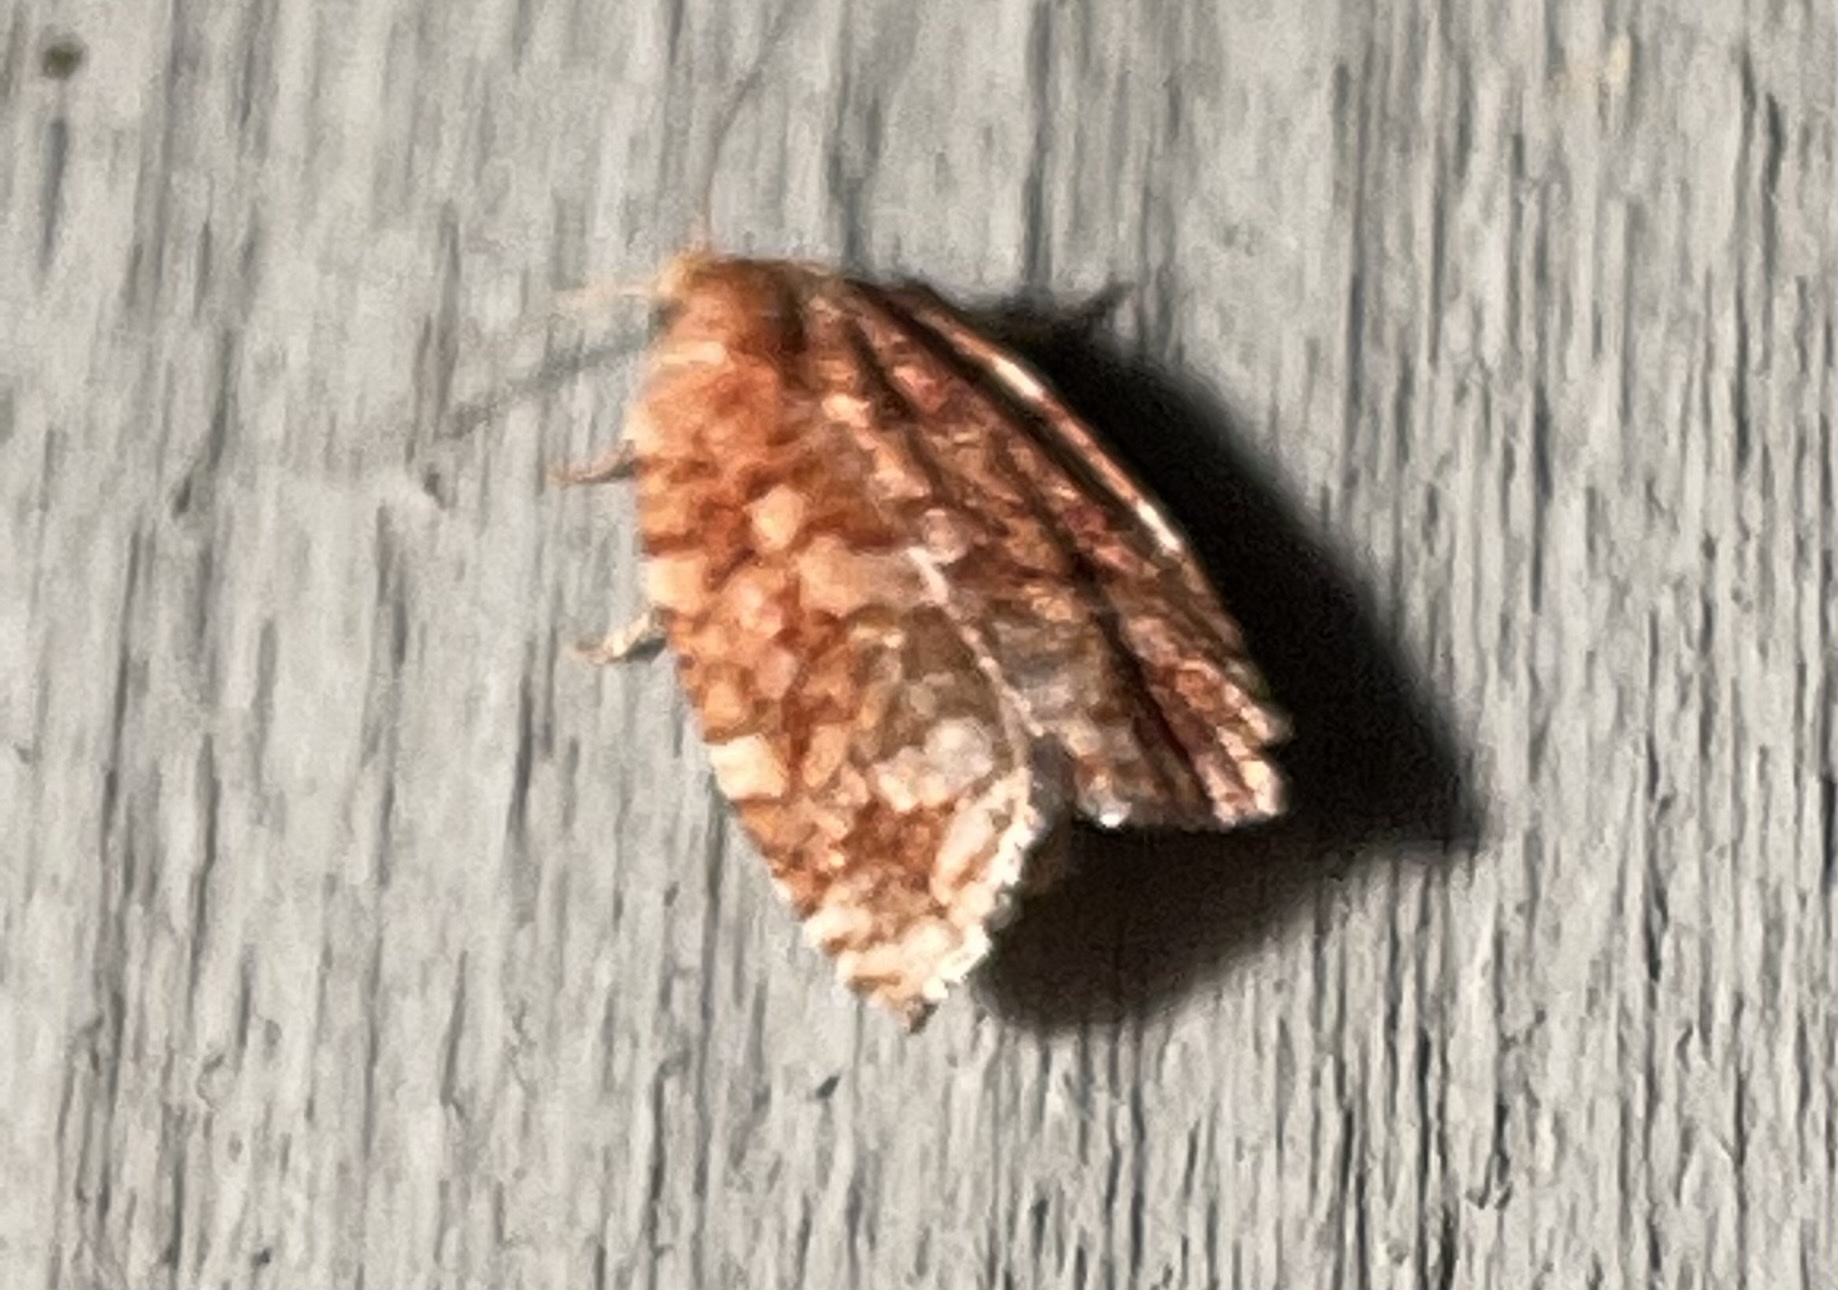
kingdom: Animalia
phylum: Arthropoda
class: Insecta
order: Lepidoptera
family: Tortricidae
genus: Choristoneura
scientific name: Choristoneura pinus
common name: Jack pine budworm
